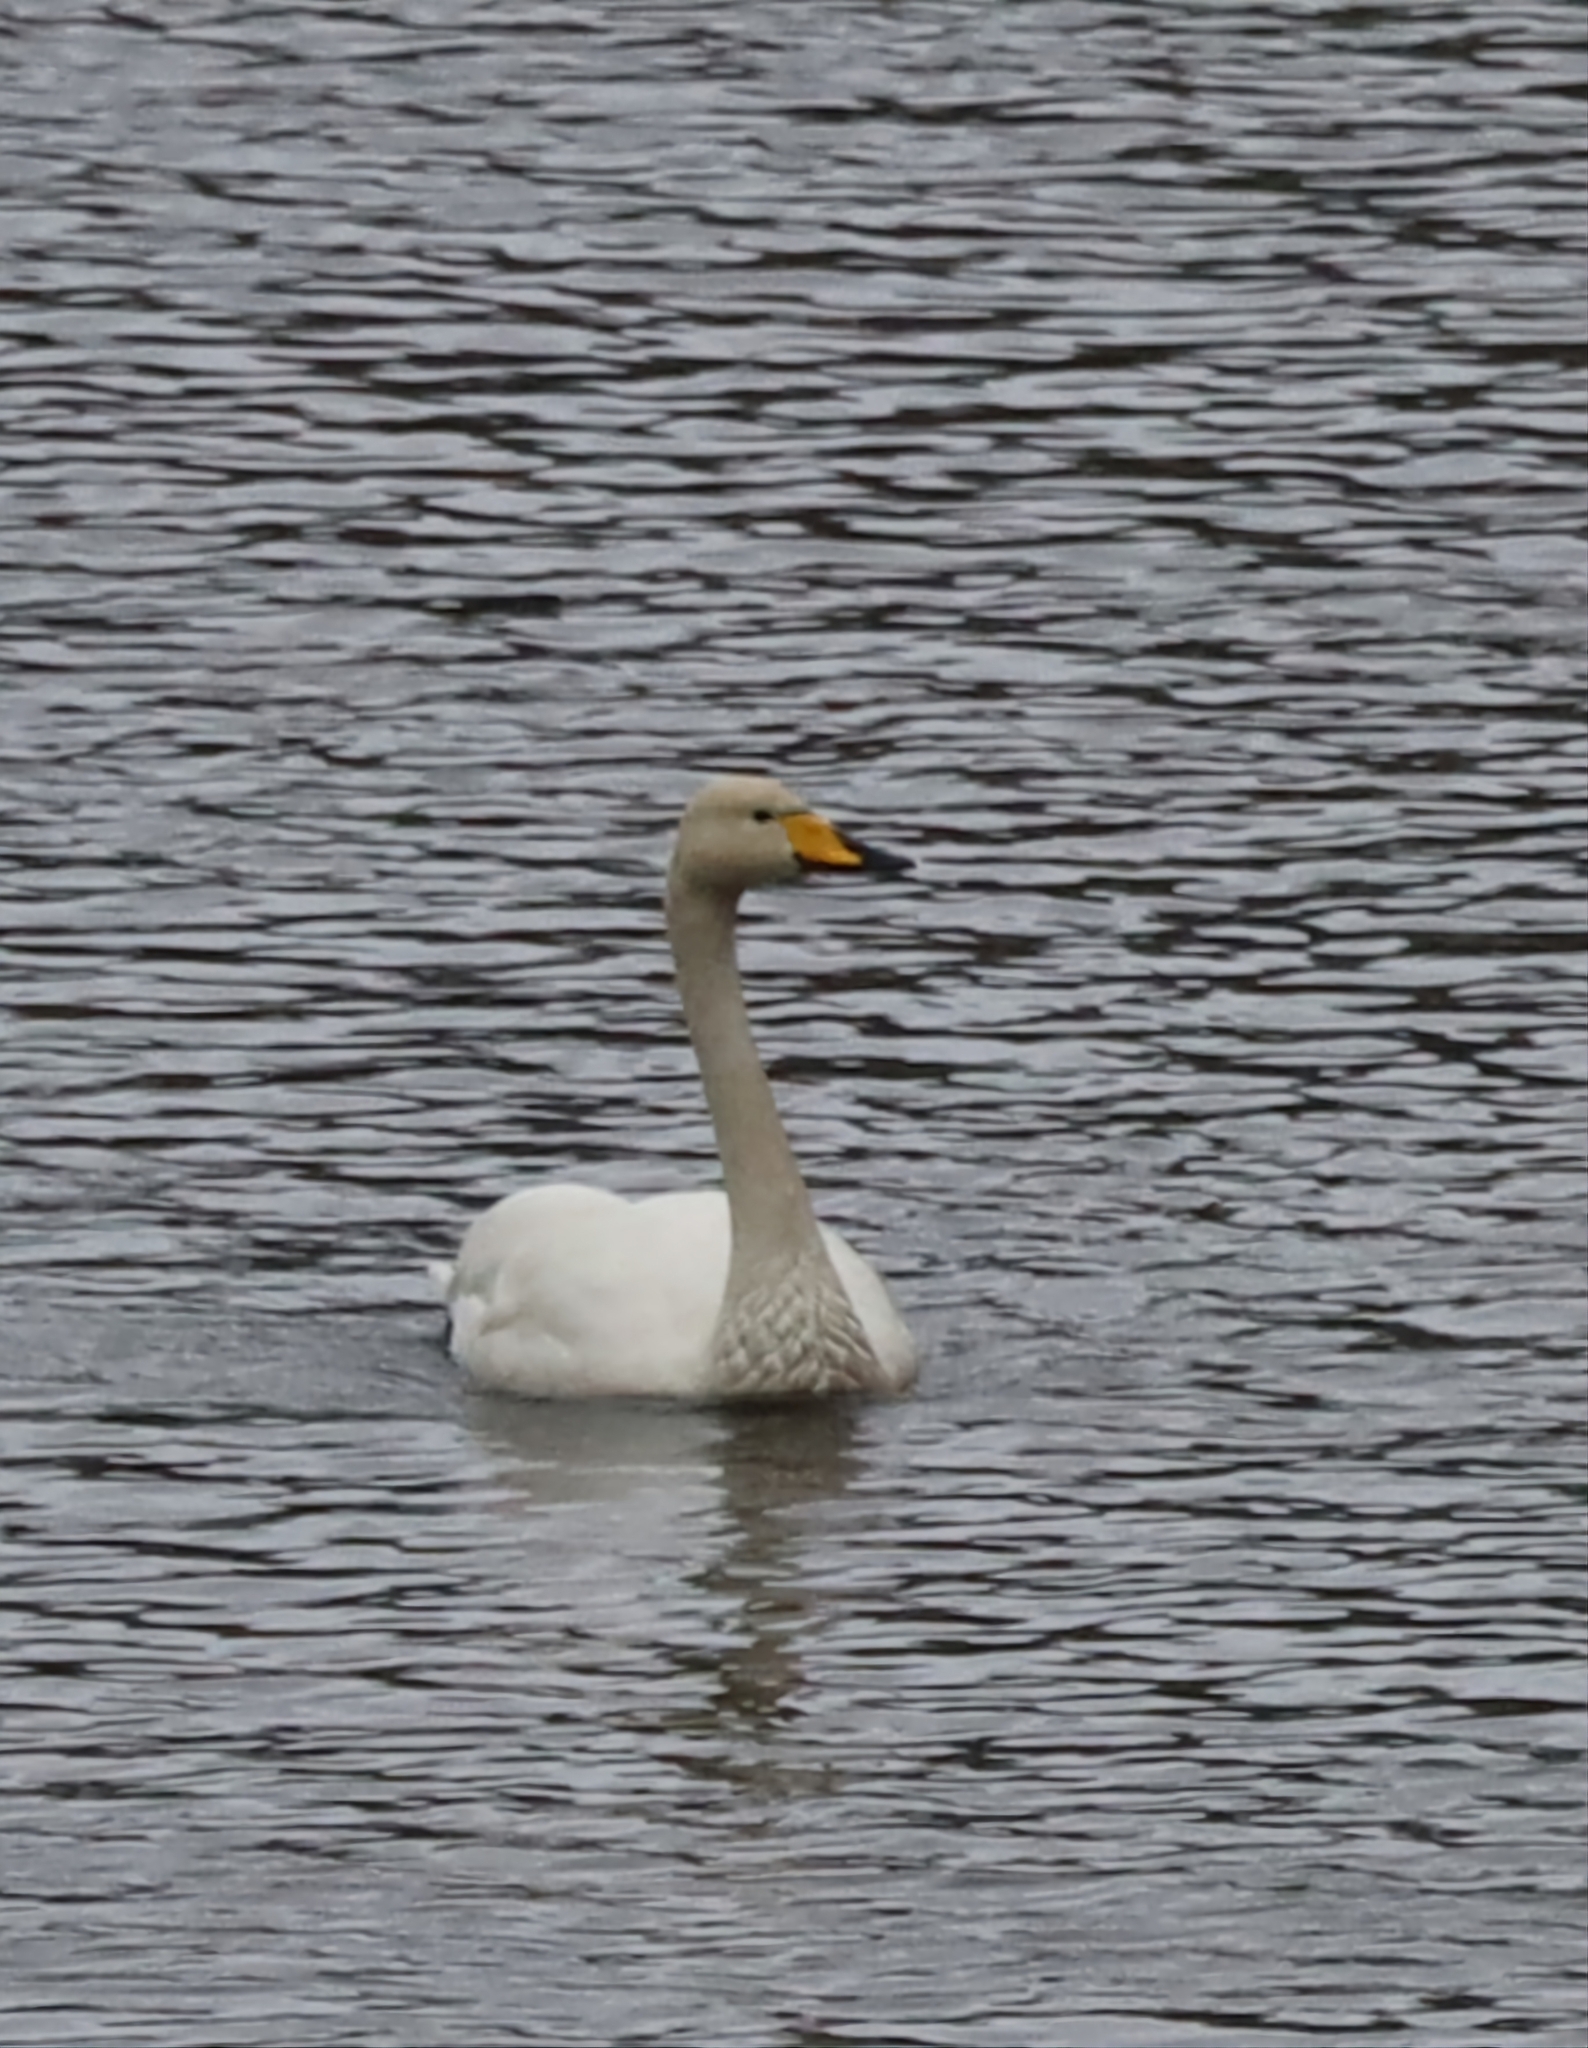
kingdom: Animalia
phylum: Chordata
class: Aves
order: Anseriformes
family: Anatidae
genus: Cygnus
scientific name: Cygnus cygnus
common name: Whooper swan
